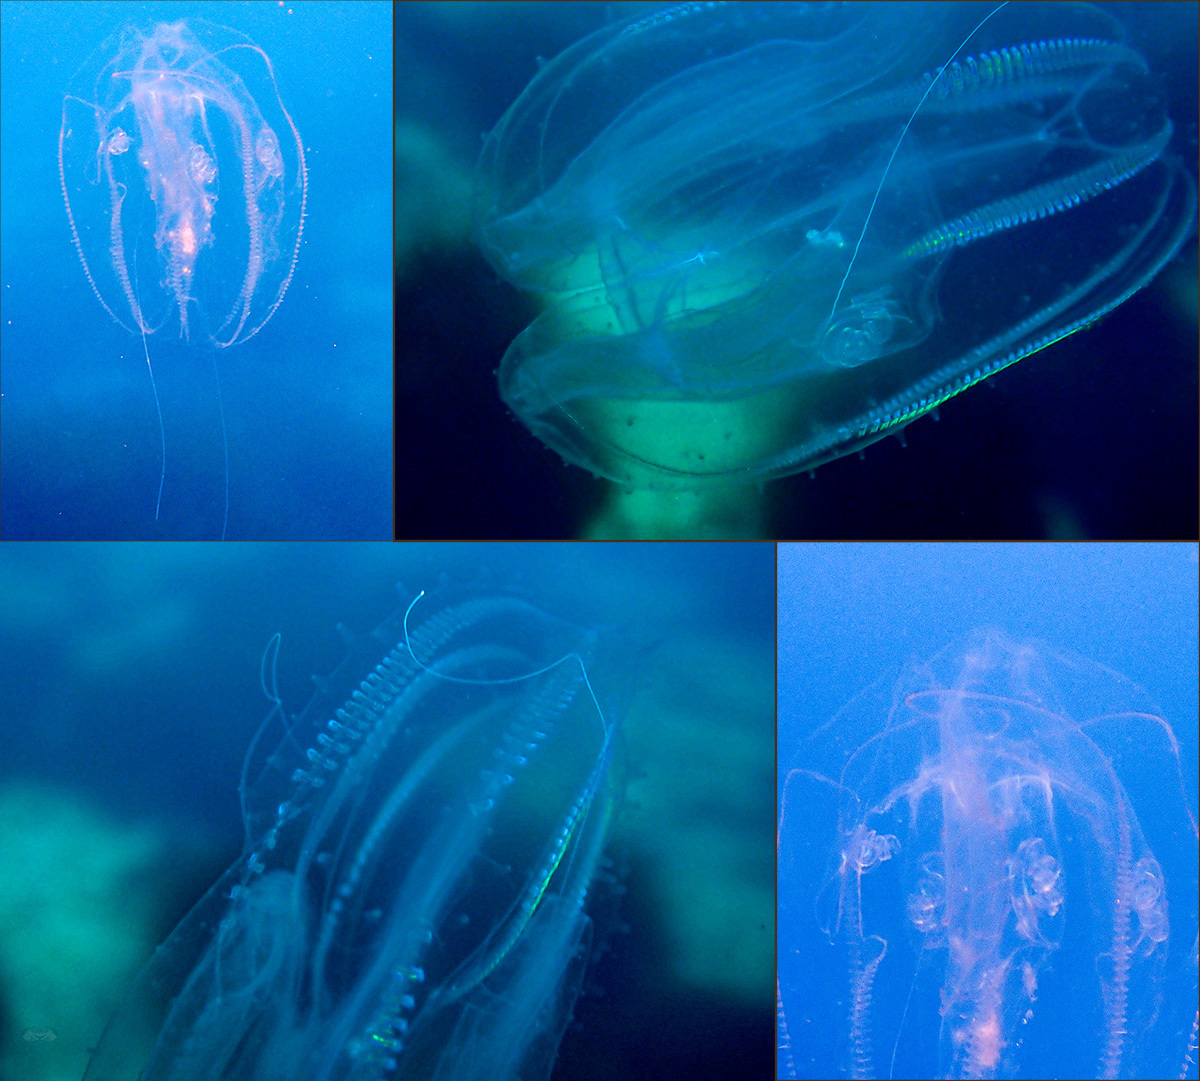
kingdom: Animalia
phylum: Ctenophora
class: Tentaculata
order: Lobata
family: Leucotheidae
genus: Leucothea
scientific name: Leucothea multicornis
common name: Vitreous lobate comb-jelly
